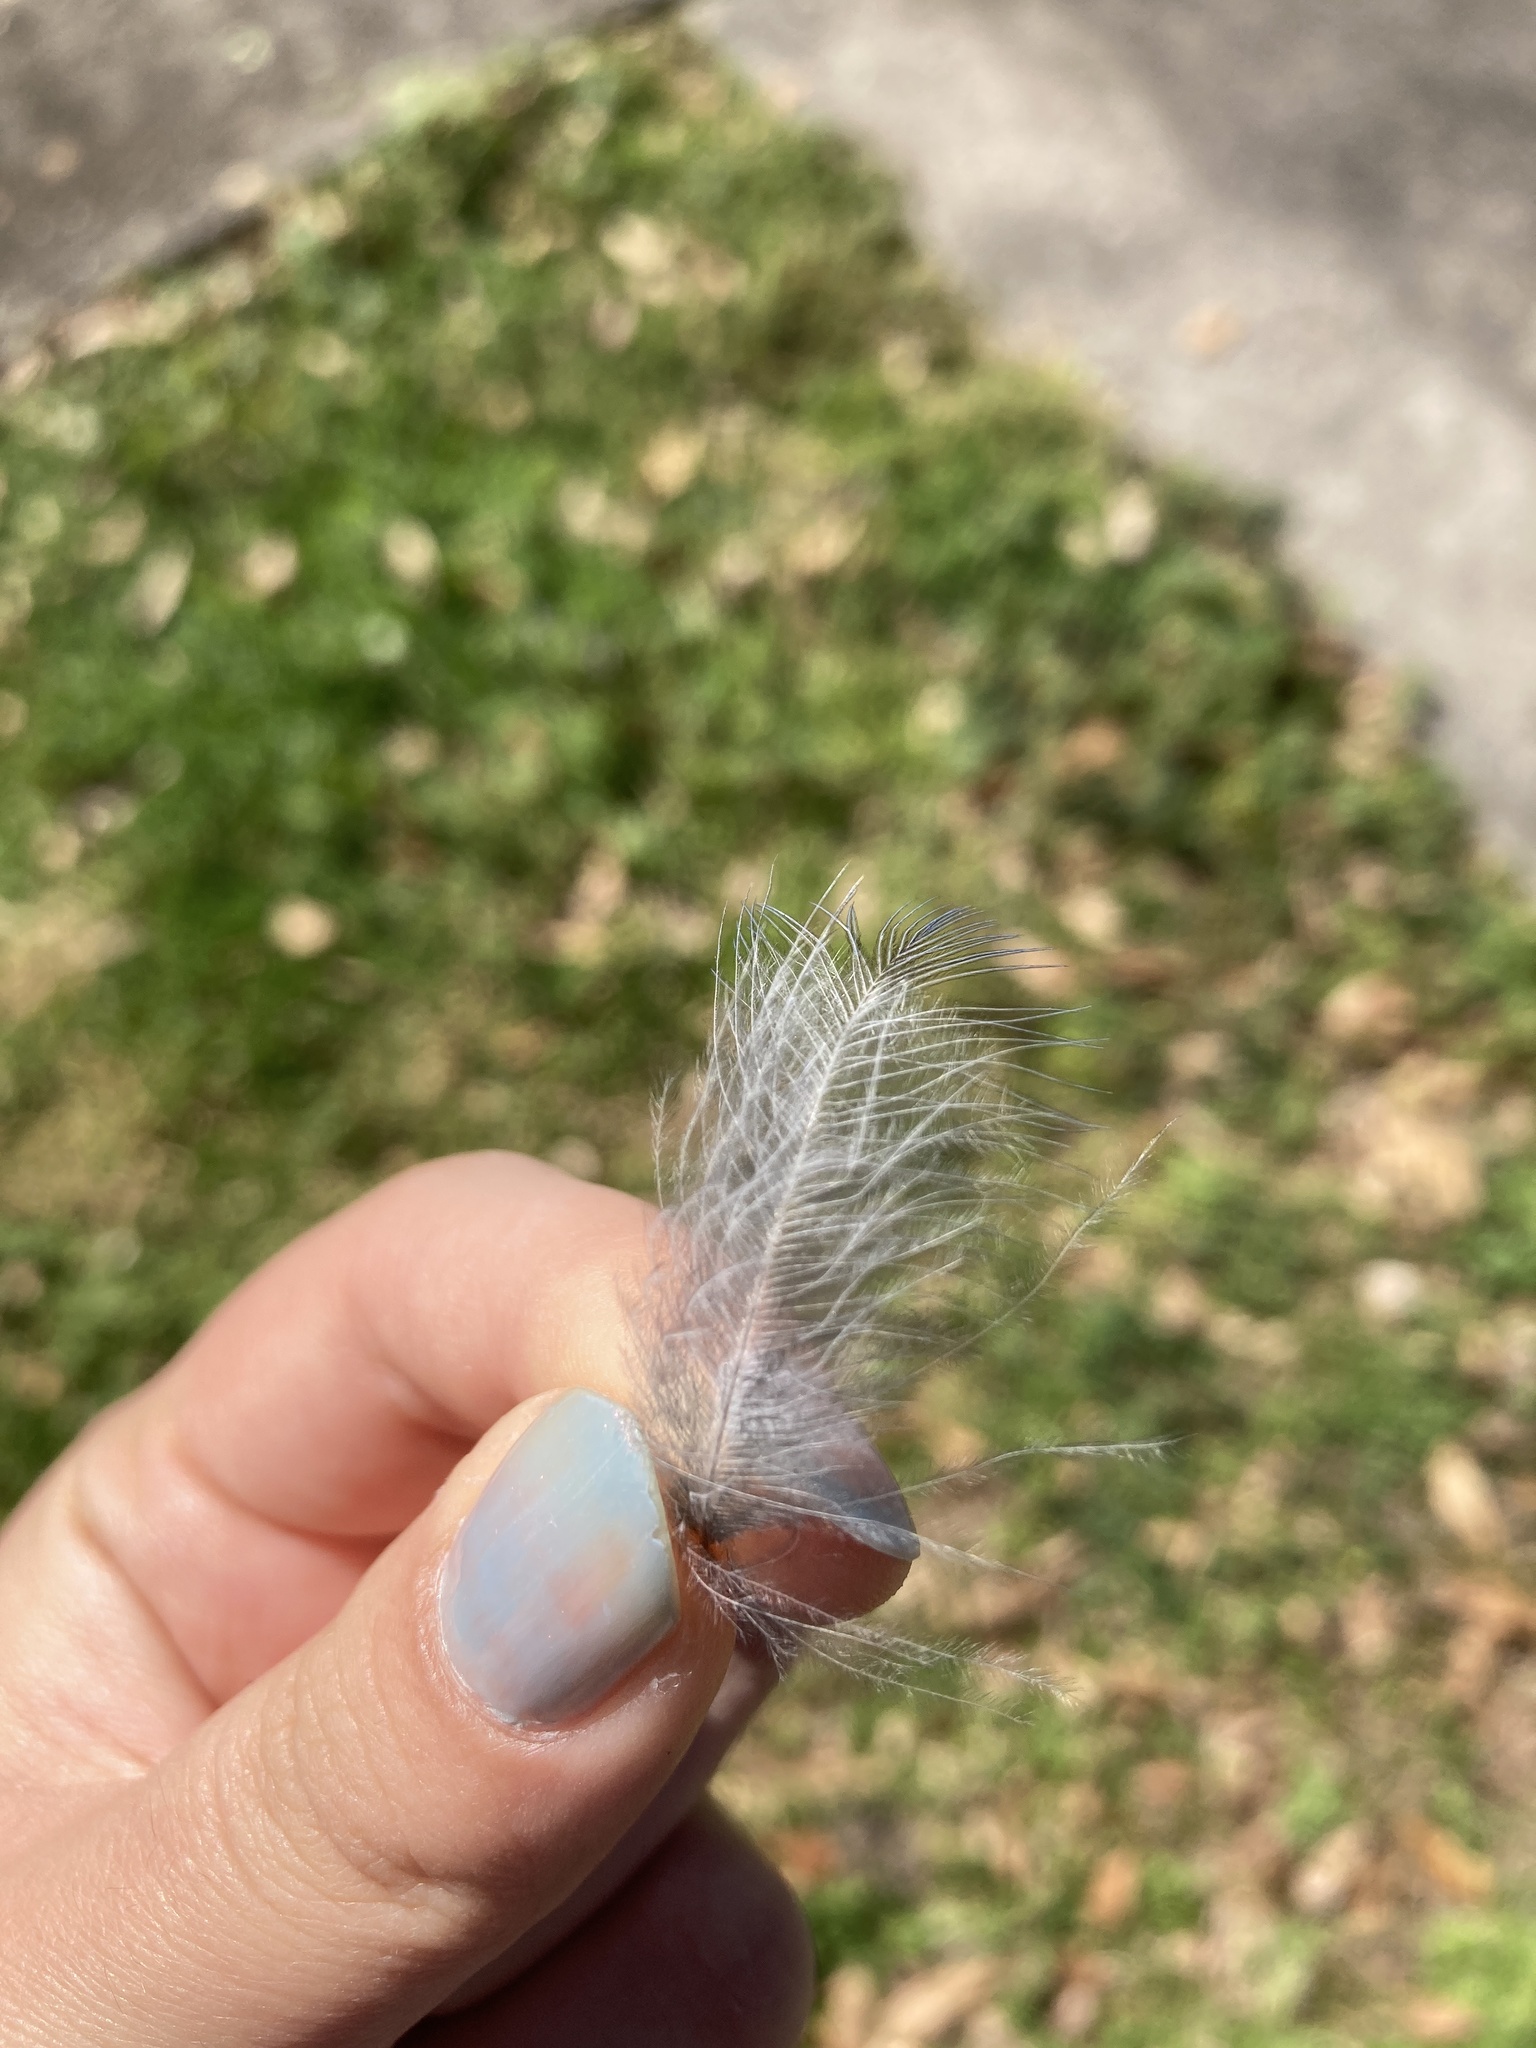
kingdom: Animalia
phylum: Chordata
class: Aves
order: Passeriformes
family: Corvidae
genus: Cyanocitta
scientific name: Cyanocitta cristata
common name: Blue jay
